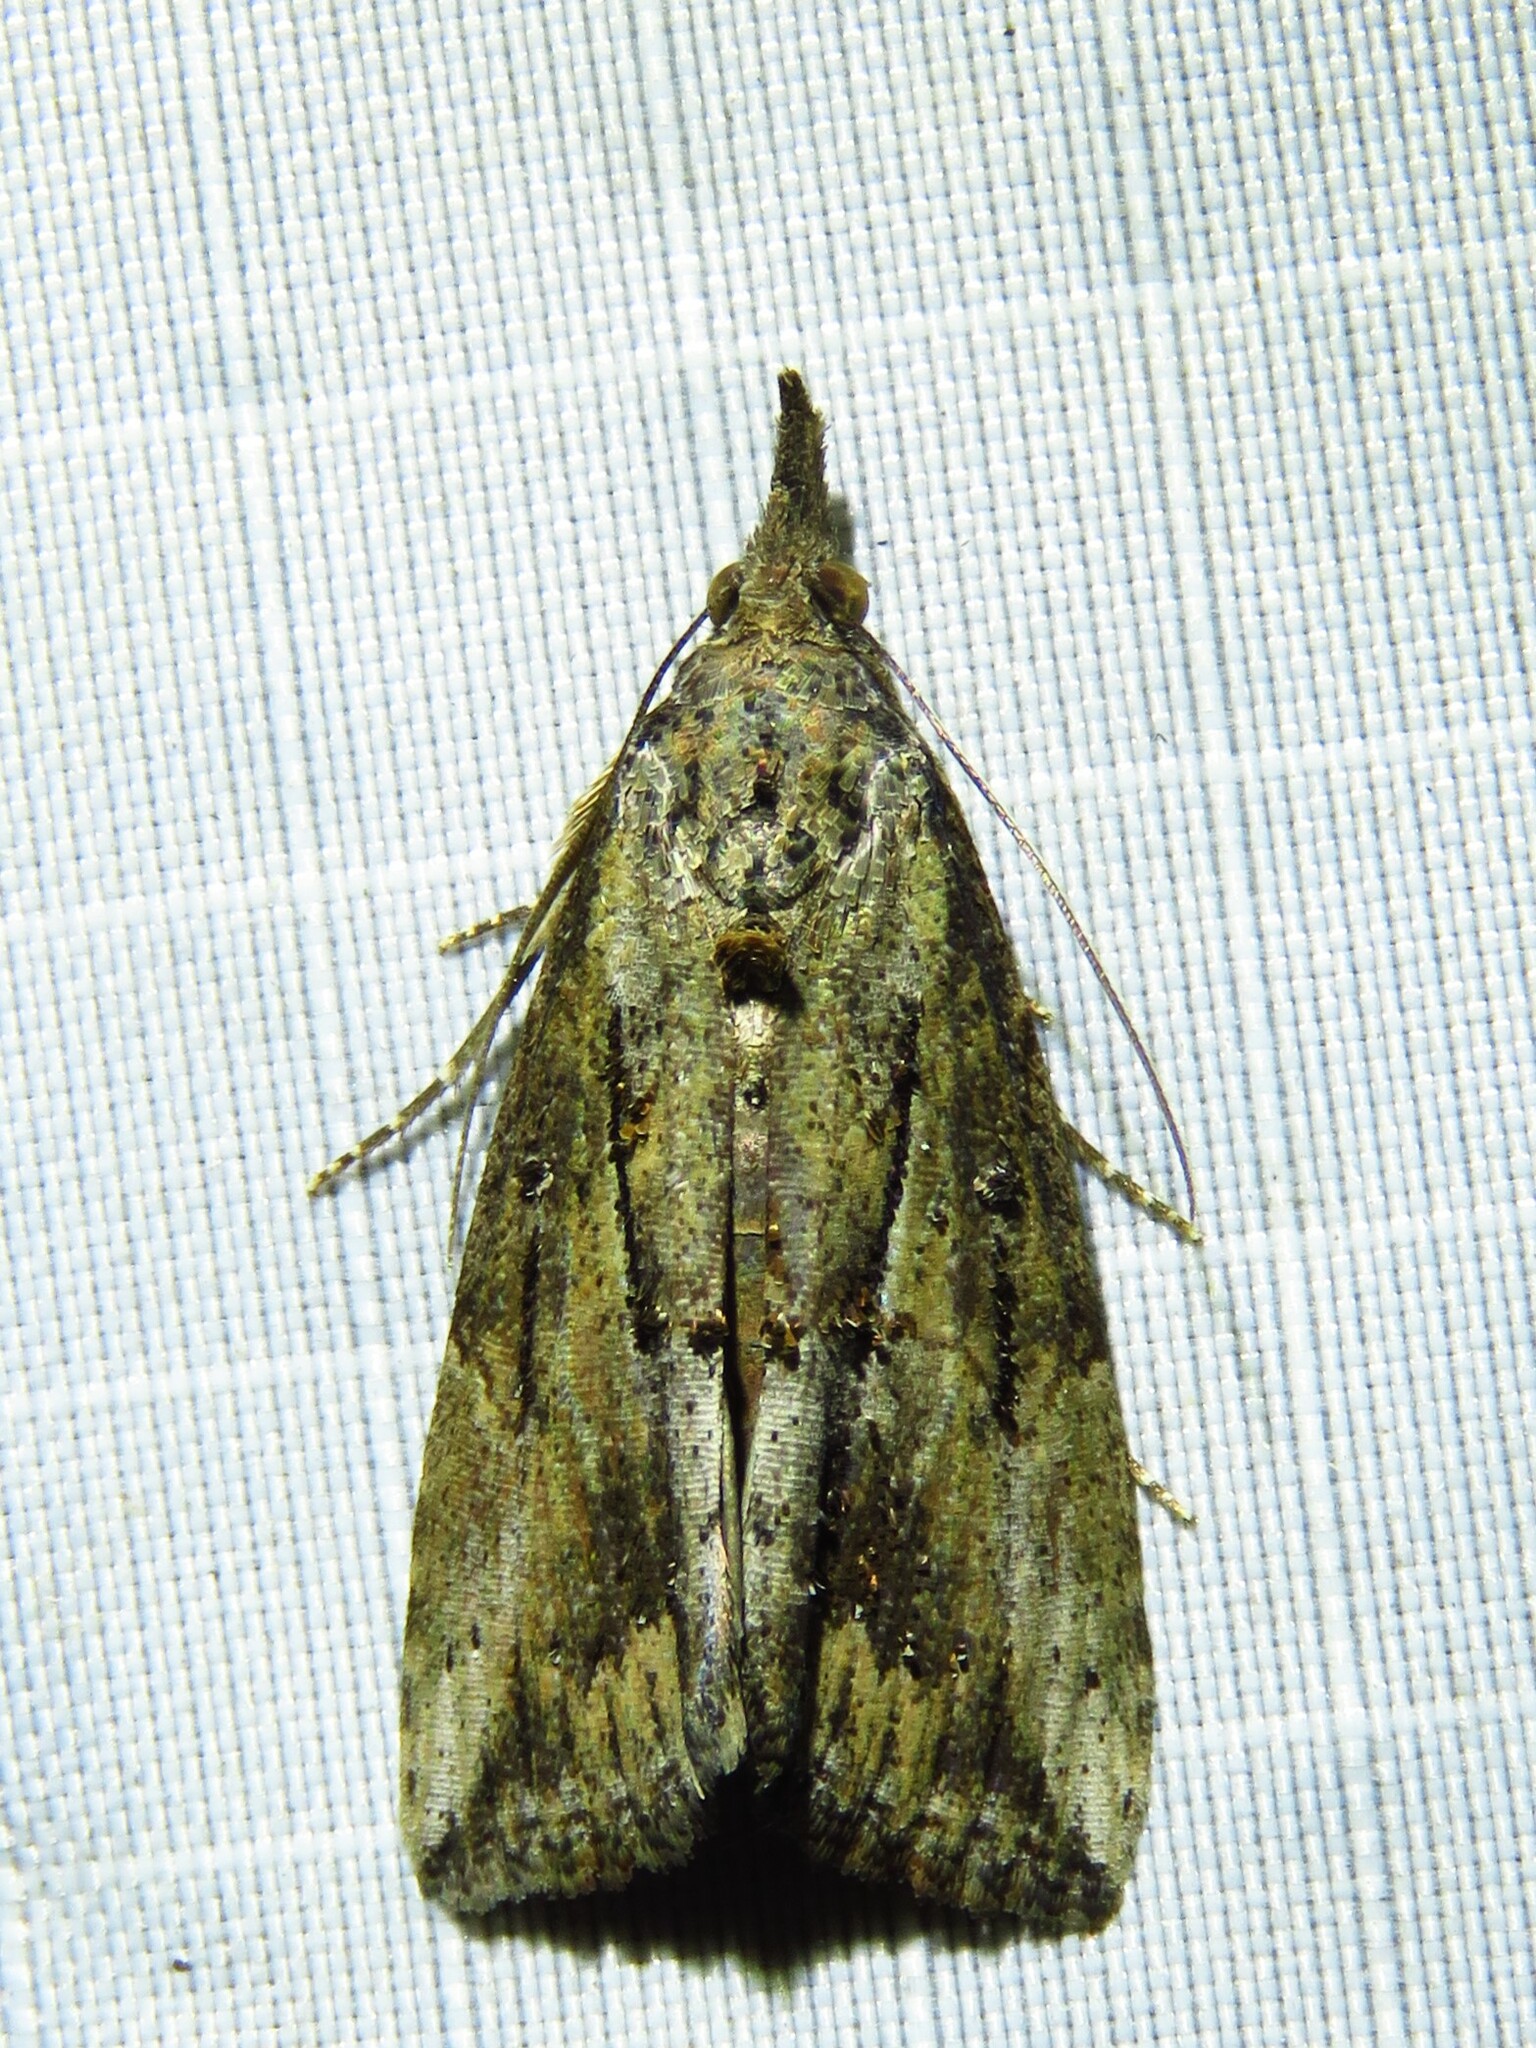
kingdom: Animalia
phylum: Arthropoda
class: Insecta
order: Lepidoptera
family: Erebidae
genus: Hypena
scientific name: Hypena scabra
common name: Green cloverworm
